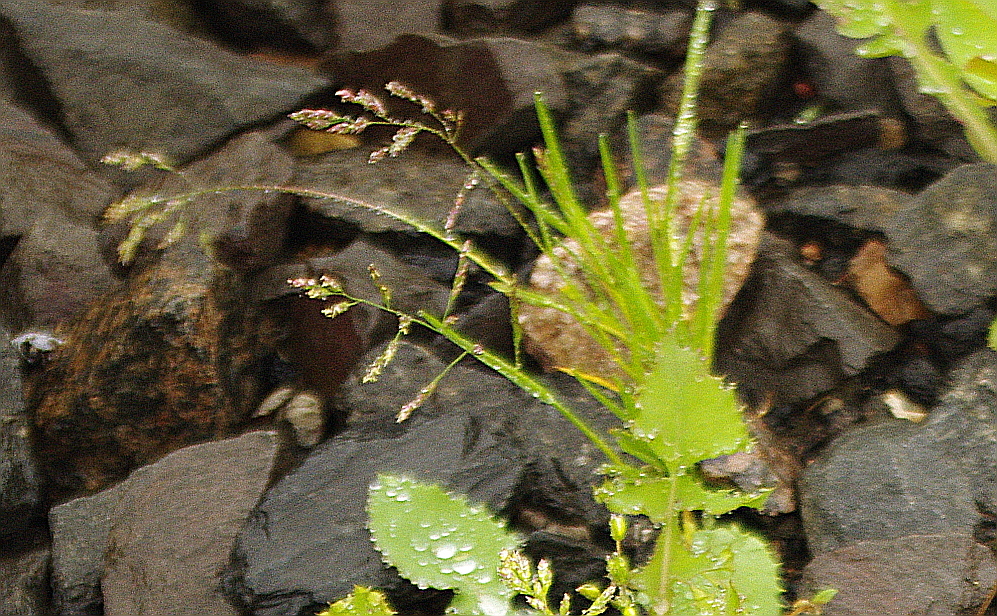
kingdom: Plantae
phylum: Tracheophyta
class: Liliopsida
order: Poales
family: Poaceae
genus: Poa
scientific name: Poa annua
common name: Annual bluegrass
